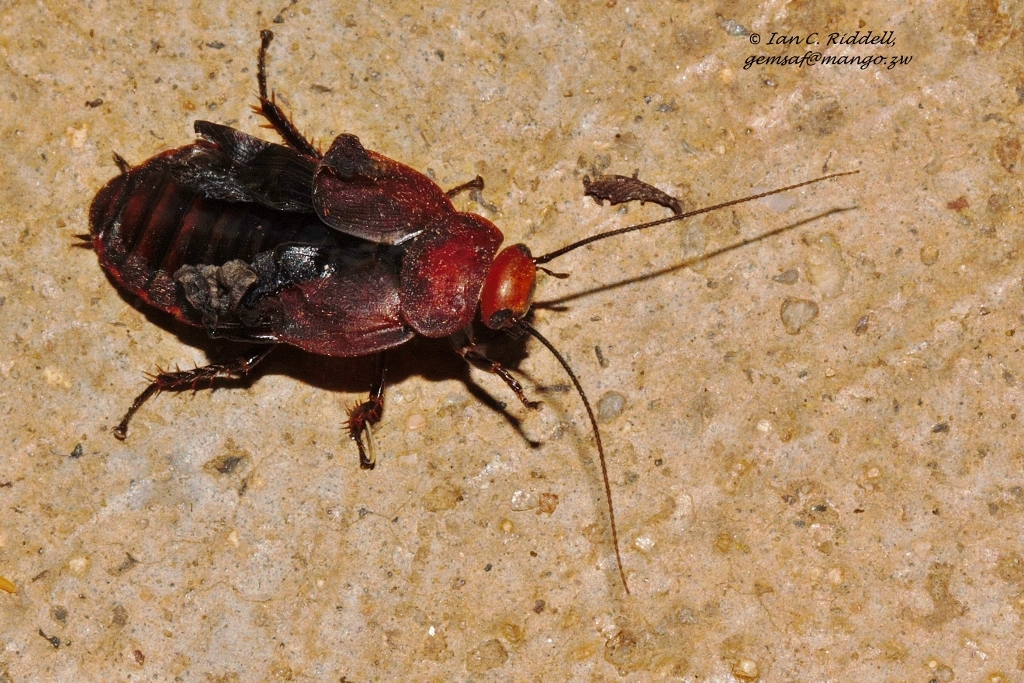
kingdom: Animalia
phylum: Arthropoda
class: Insecta
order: Blattodea
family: Blaberidae
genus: Oxyhaloa
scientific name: Oxyhaloa deusta
